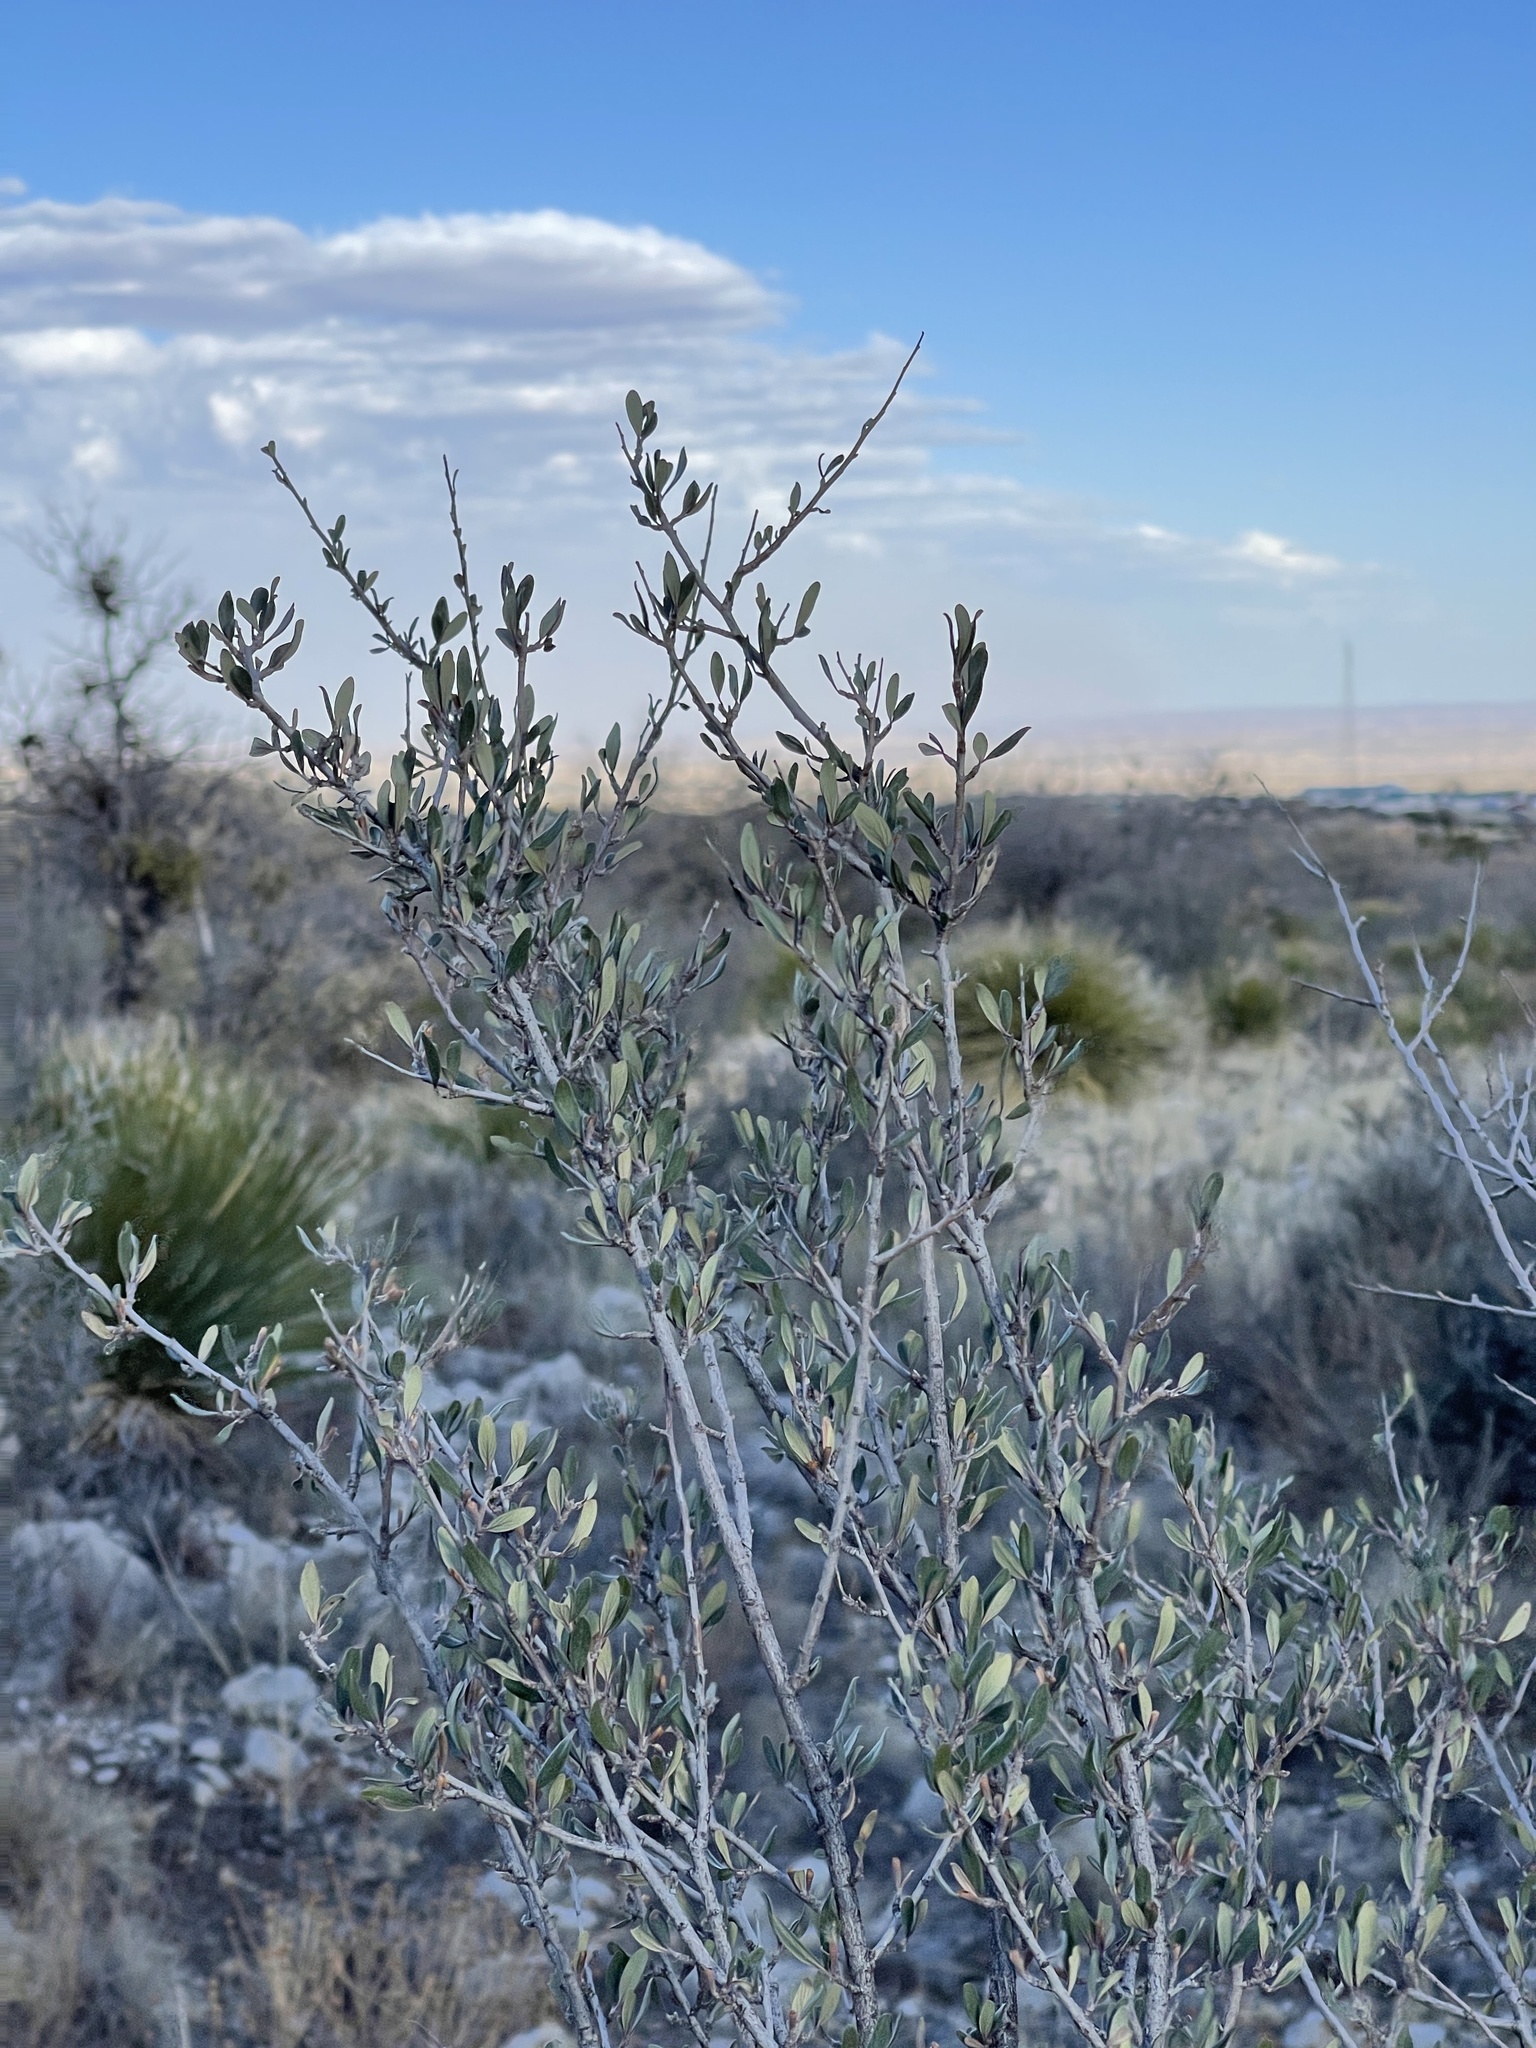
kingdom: Plantae
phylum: Tracheophyta
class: Magnoliopsida
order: Rosales
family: Rosaceae
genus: Cercocarpus
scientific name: Cercocarpus breviflorus
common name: Wright's mountain-mahogany
